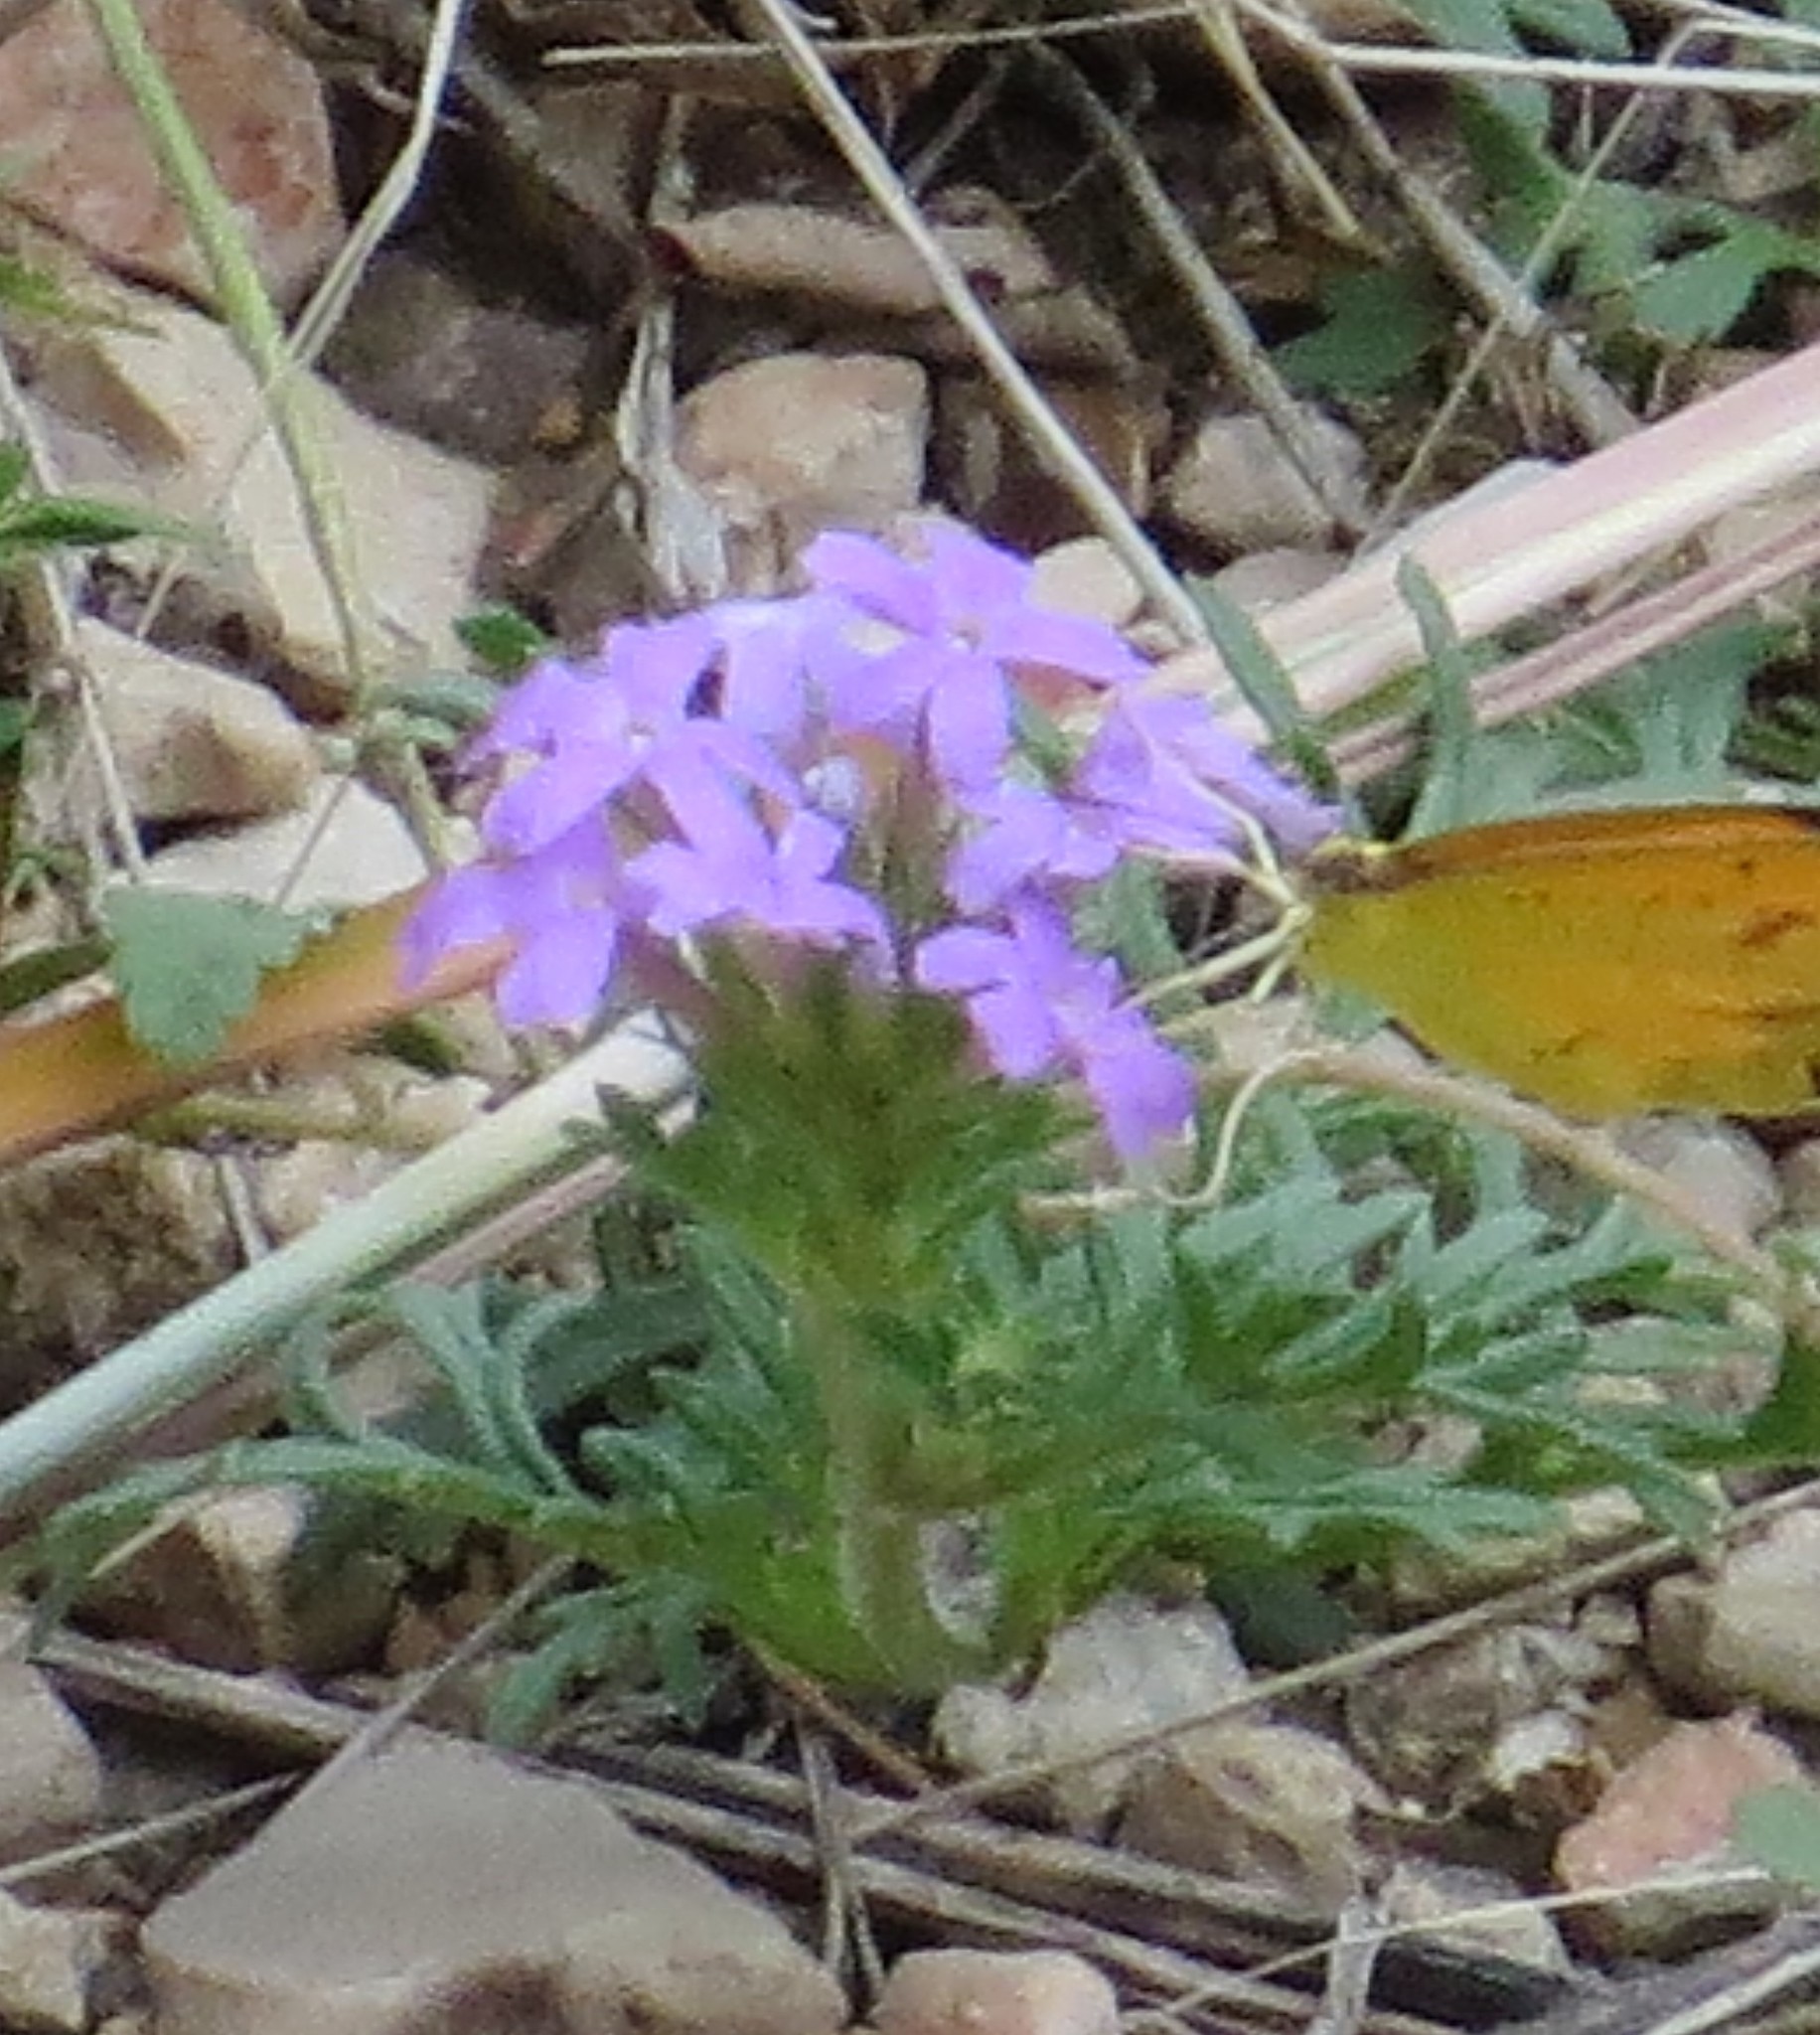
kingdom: Plantae
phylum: Tracheophyta
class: Magnoliopsida
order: Lamiales
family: Verbenaceae
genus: Verbena
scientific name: Verbena bipinnatifida
